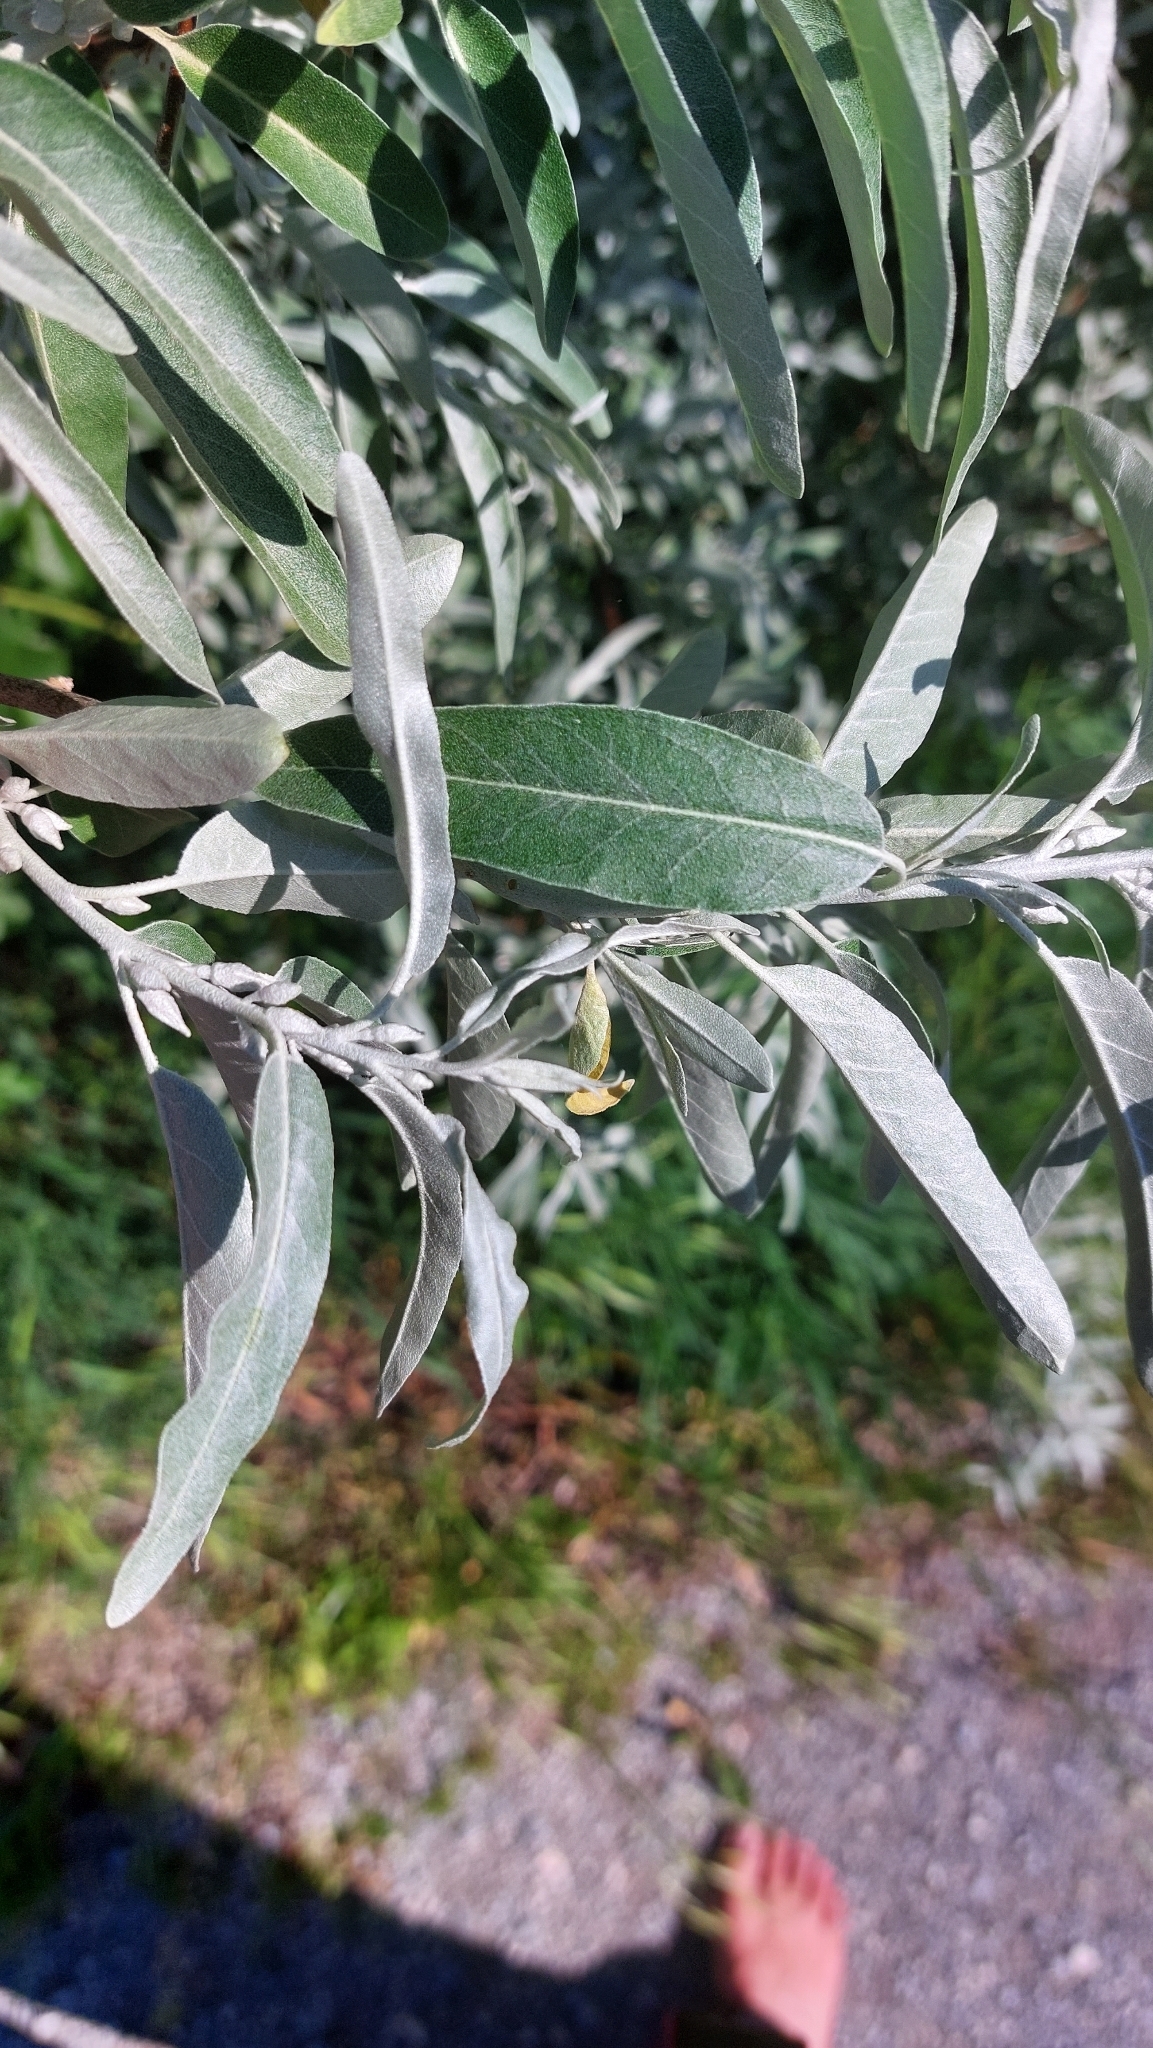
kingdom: Plantae
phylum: Tracheophyta
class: Magnoliopsida
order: Rosales
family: Elaeagnaceae
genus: Elaeagnus
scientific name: Elaeagnus angustifolia
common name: Russian olive
